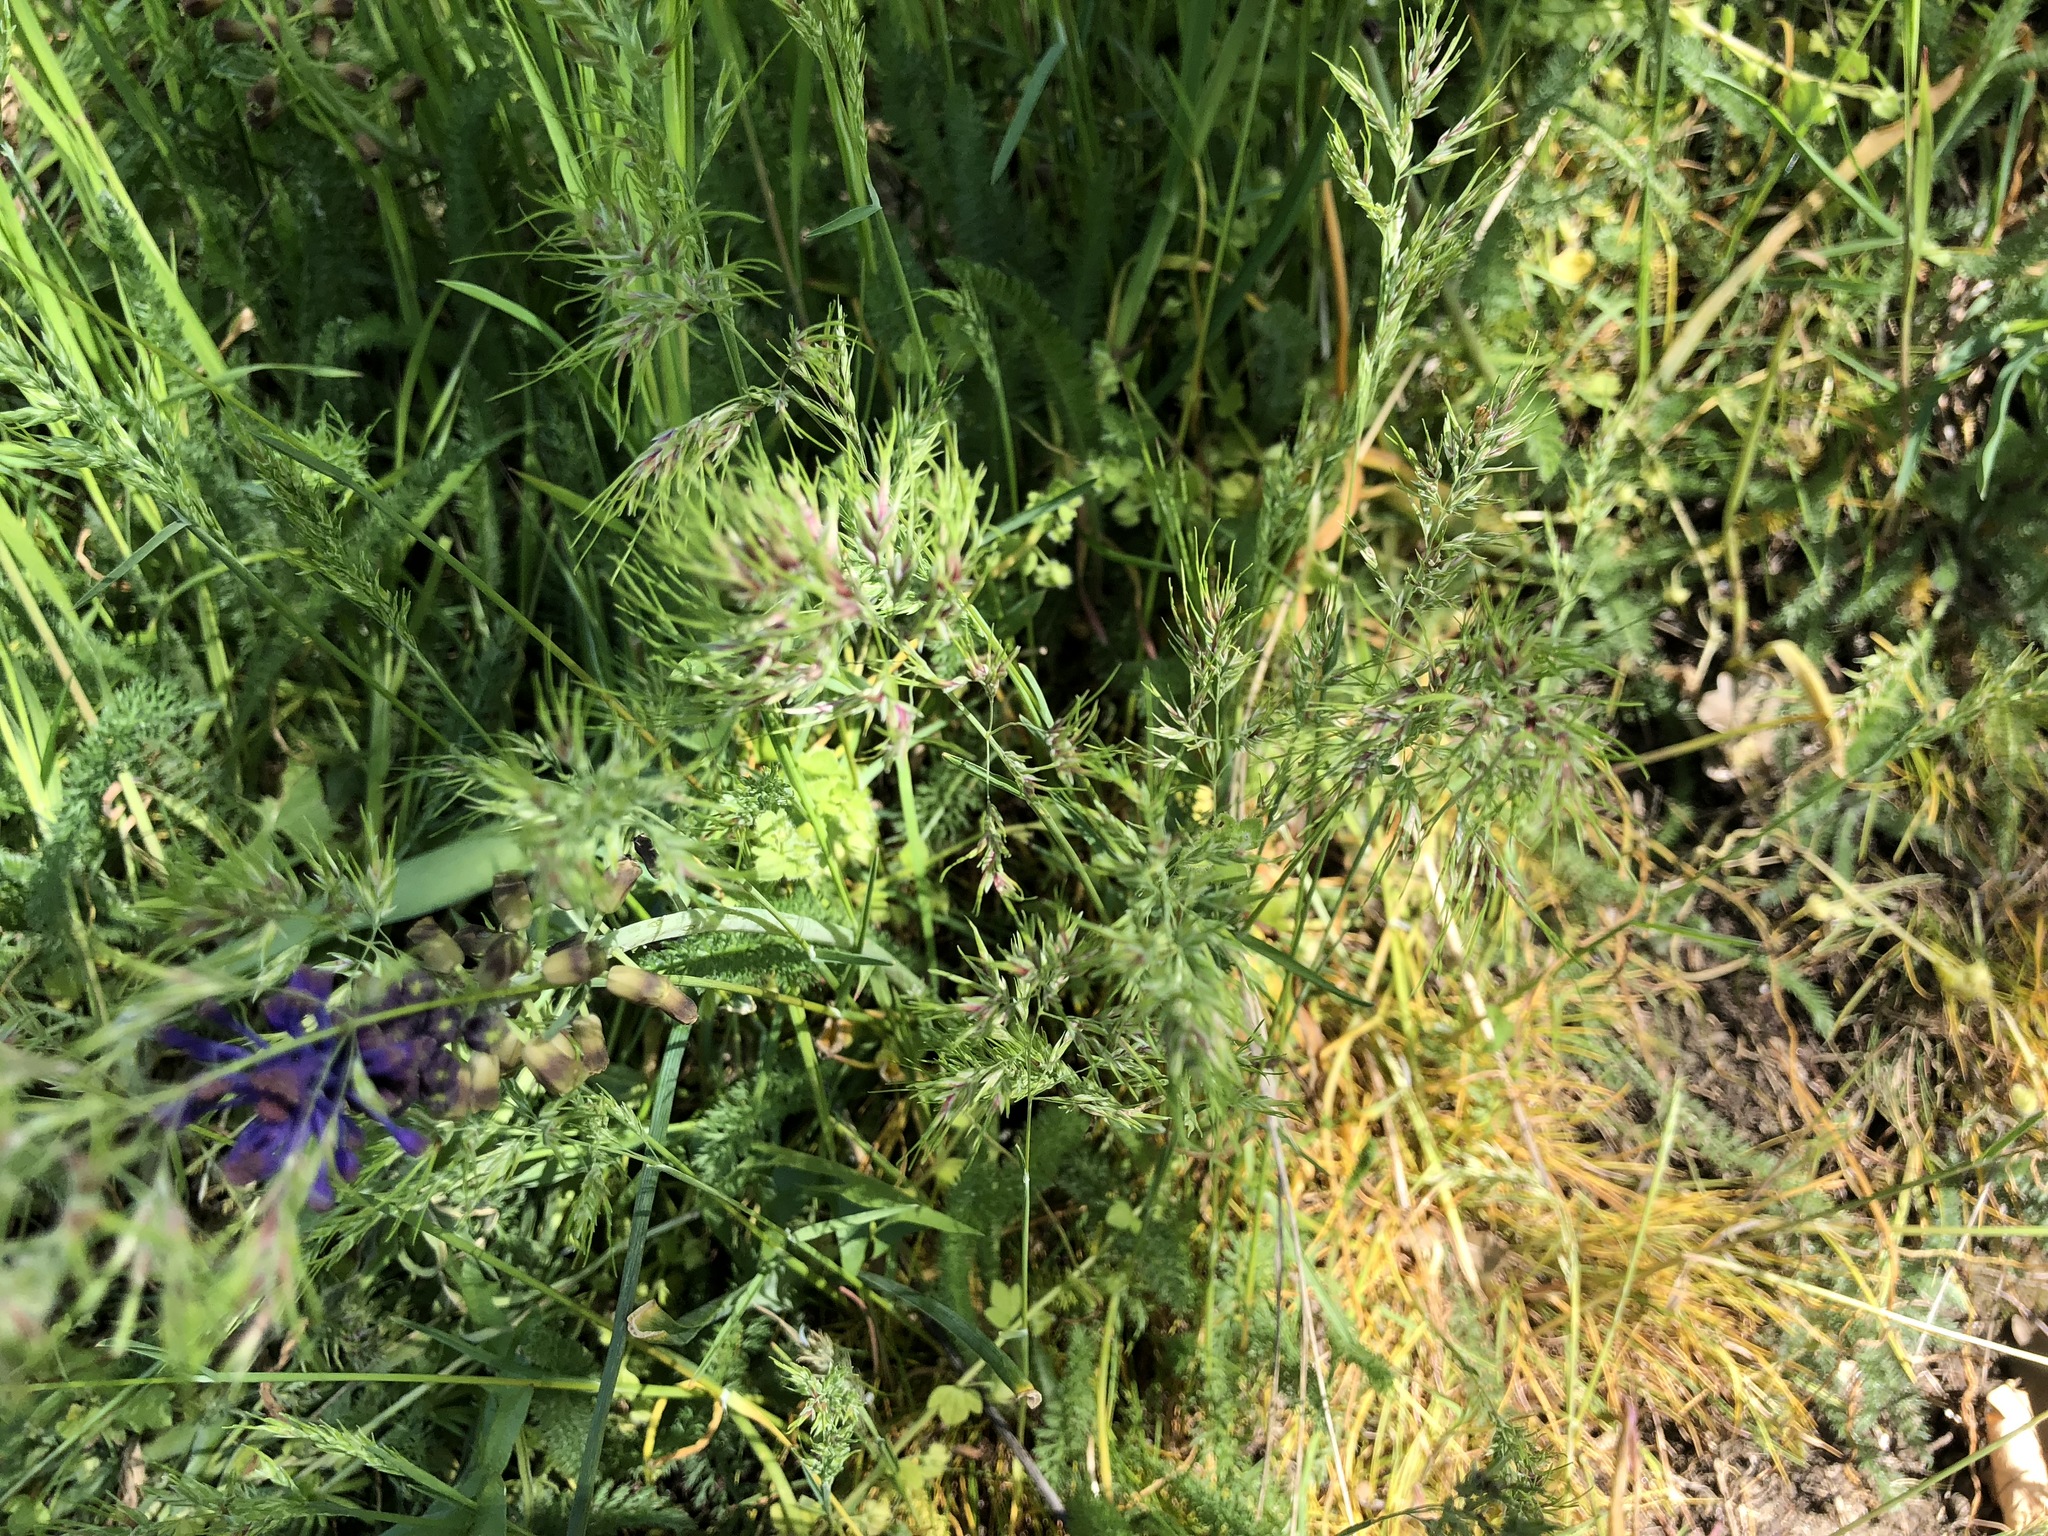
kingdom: Plantae
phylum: Tracheophyta
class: Liliopsida
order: Poales
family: Poaceae
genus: Poa
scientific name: Poa bulbosa
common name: Bulbous bluegrass
